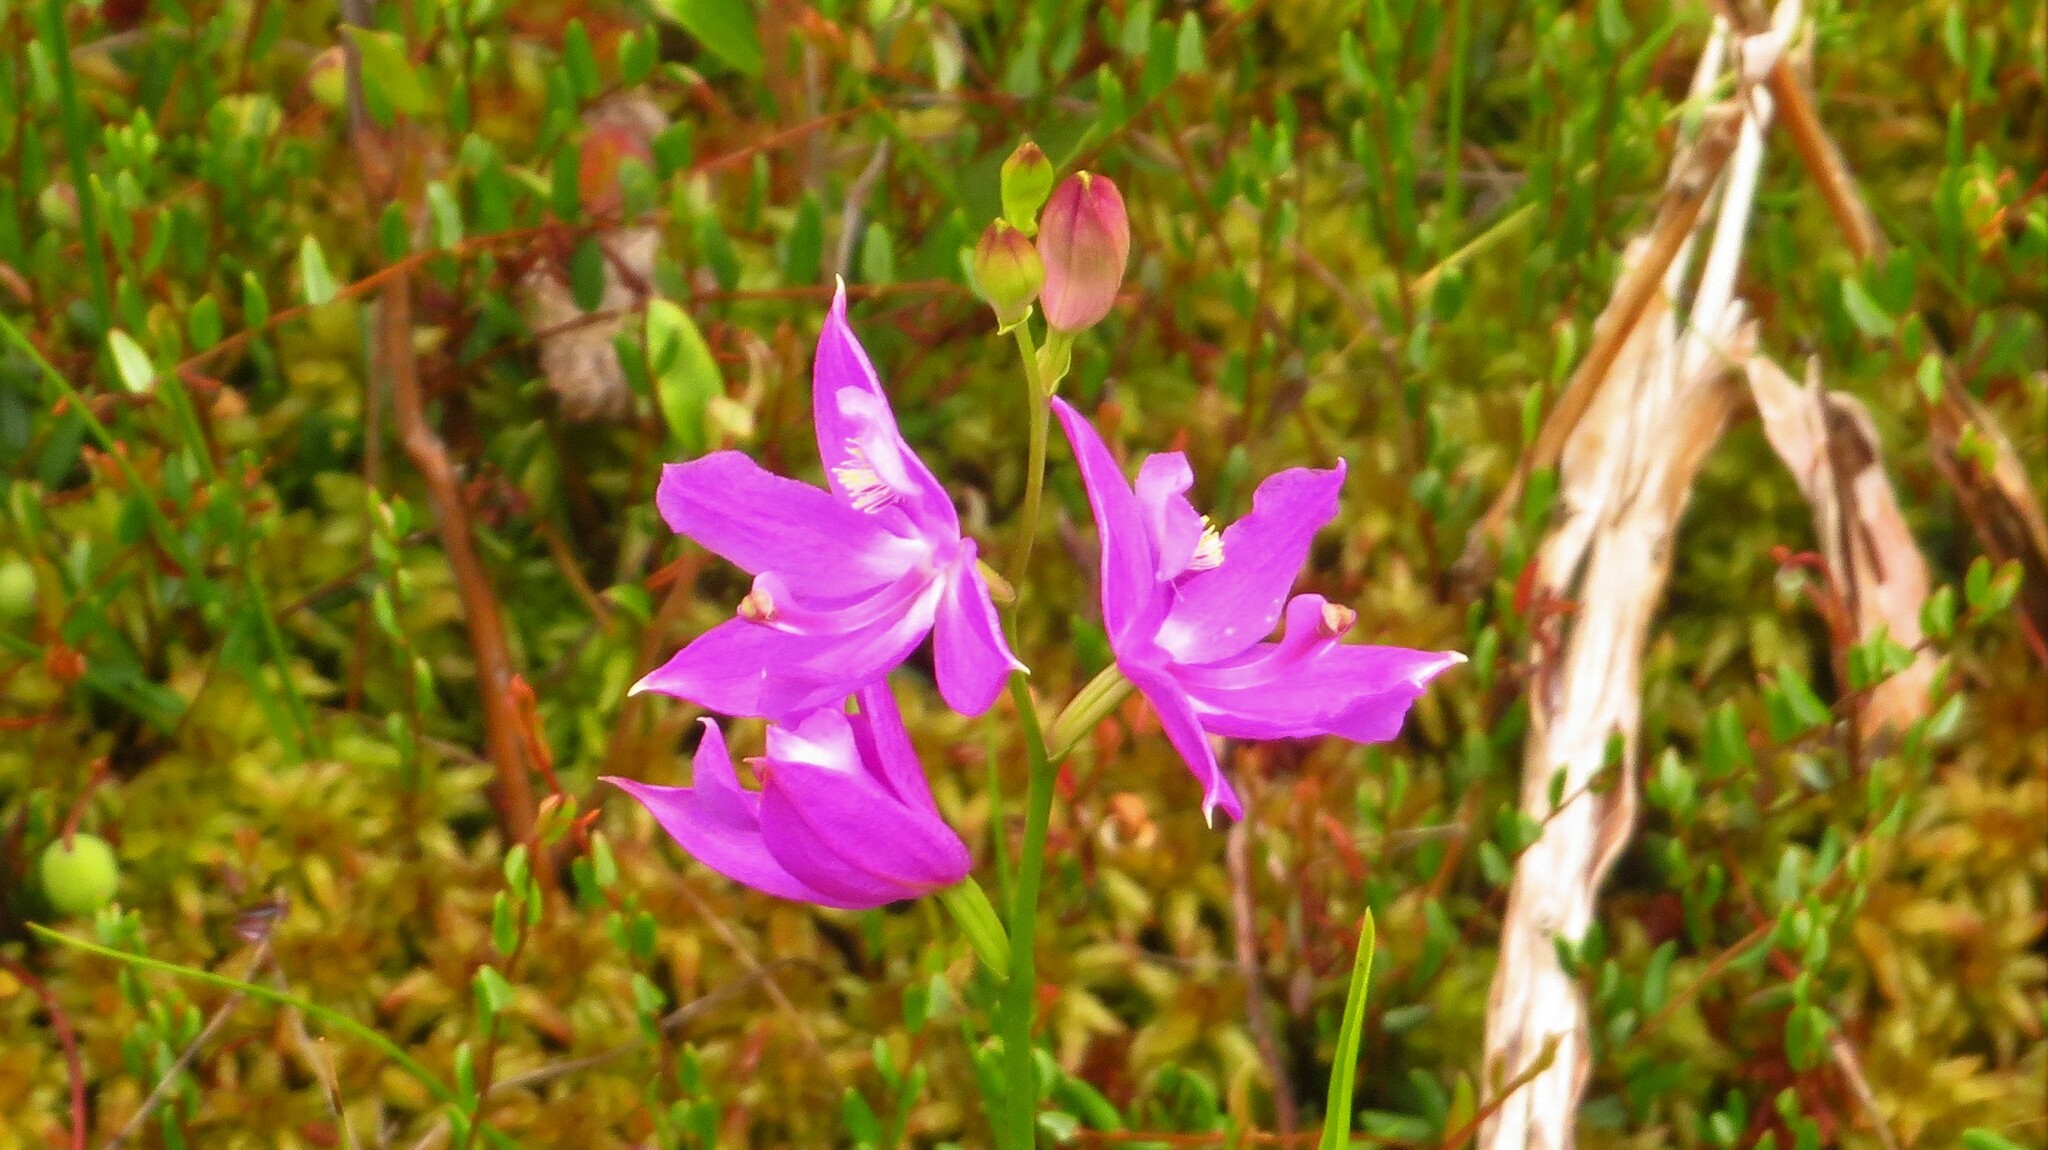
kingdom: Plantae
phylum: Tracheophyta
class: Liliopsida
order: Asparagales
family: Orchidaceae
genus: Calopogon
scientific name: Calopogon tuberosus
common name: Grass-pink
